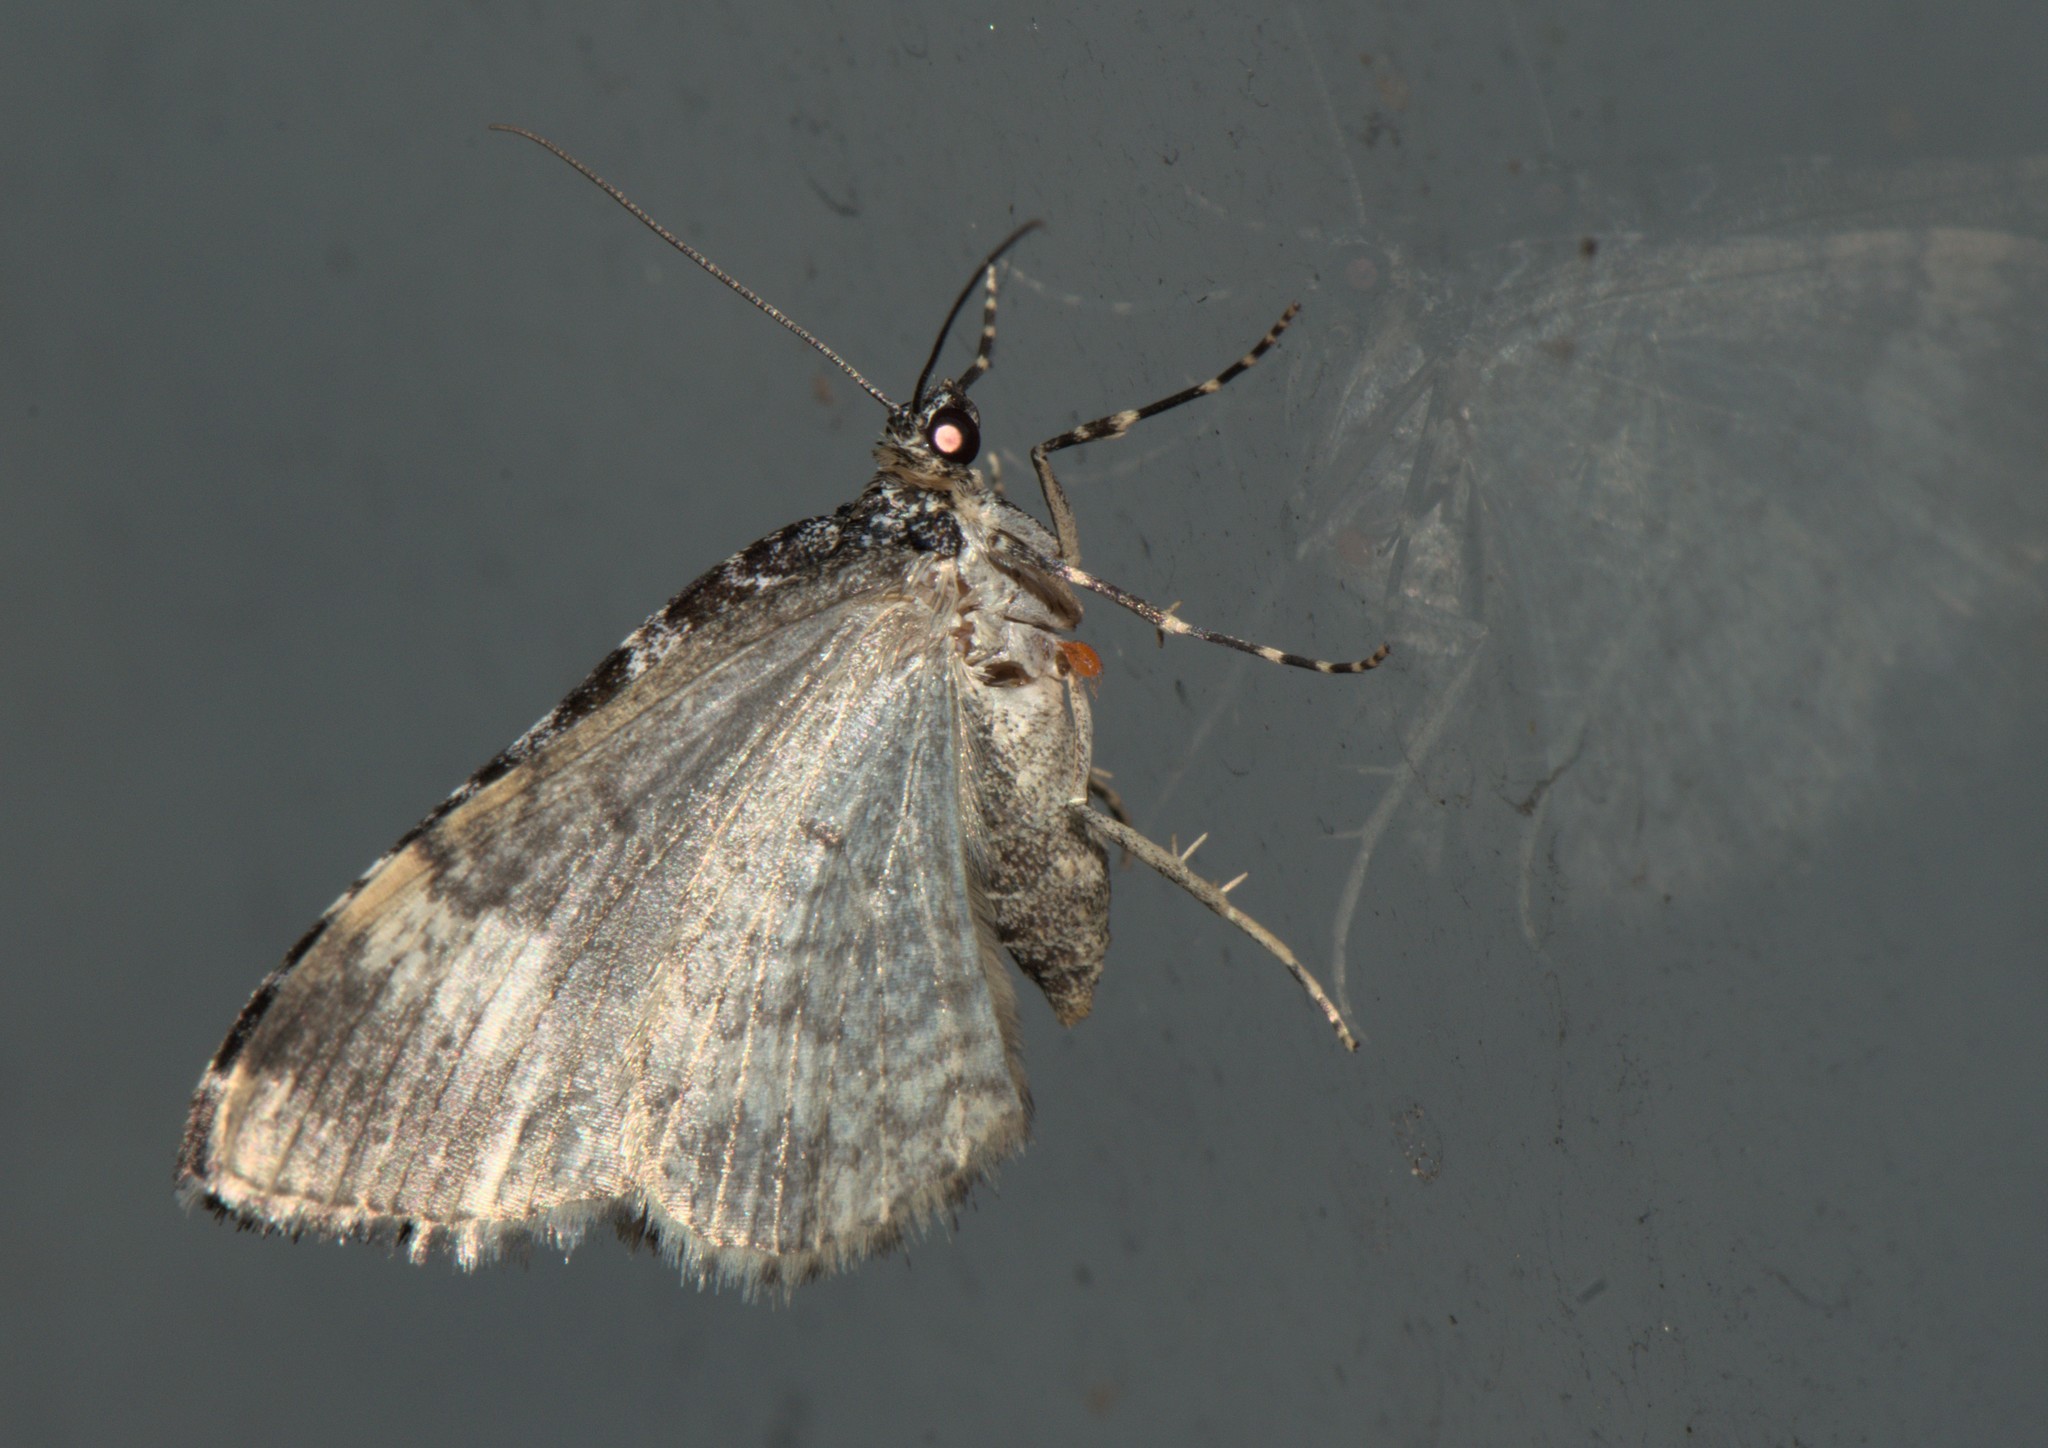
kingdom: Animalia
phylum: Arthropoda
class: Insecta
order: Lepidoptera
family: Geometridae
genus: Euphyia
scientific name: Euphyia ochreata
